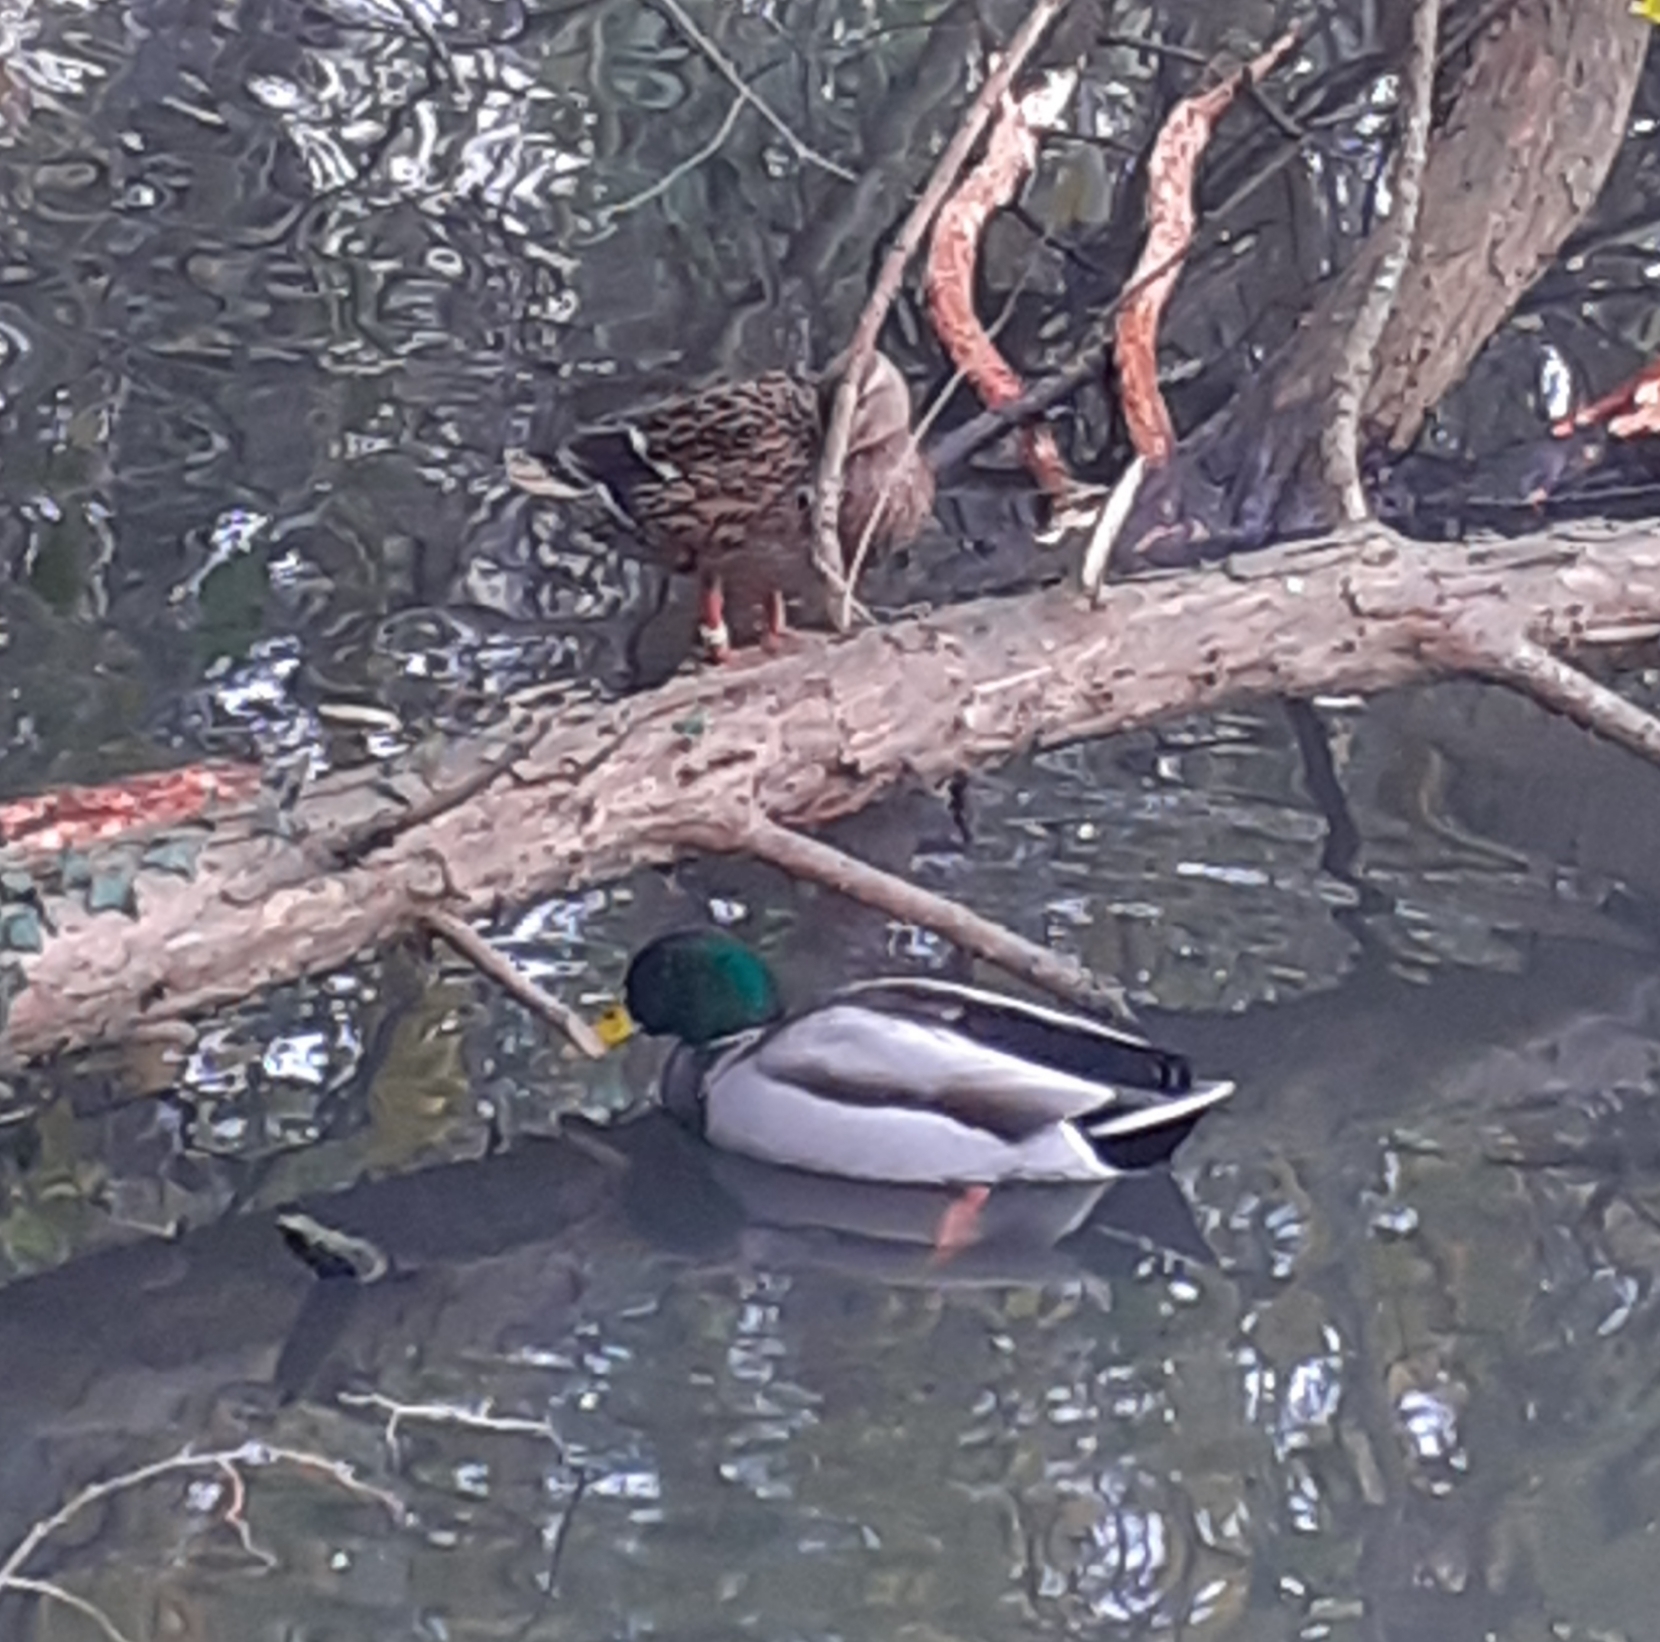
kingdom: Animalia
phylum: Chordata
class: Aves
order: Anseriformes
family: Anatidae
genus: Anas
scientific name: Anas platyrhynchos
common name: Mallard
